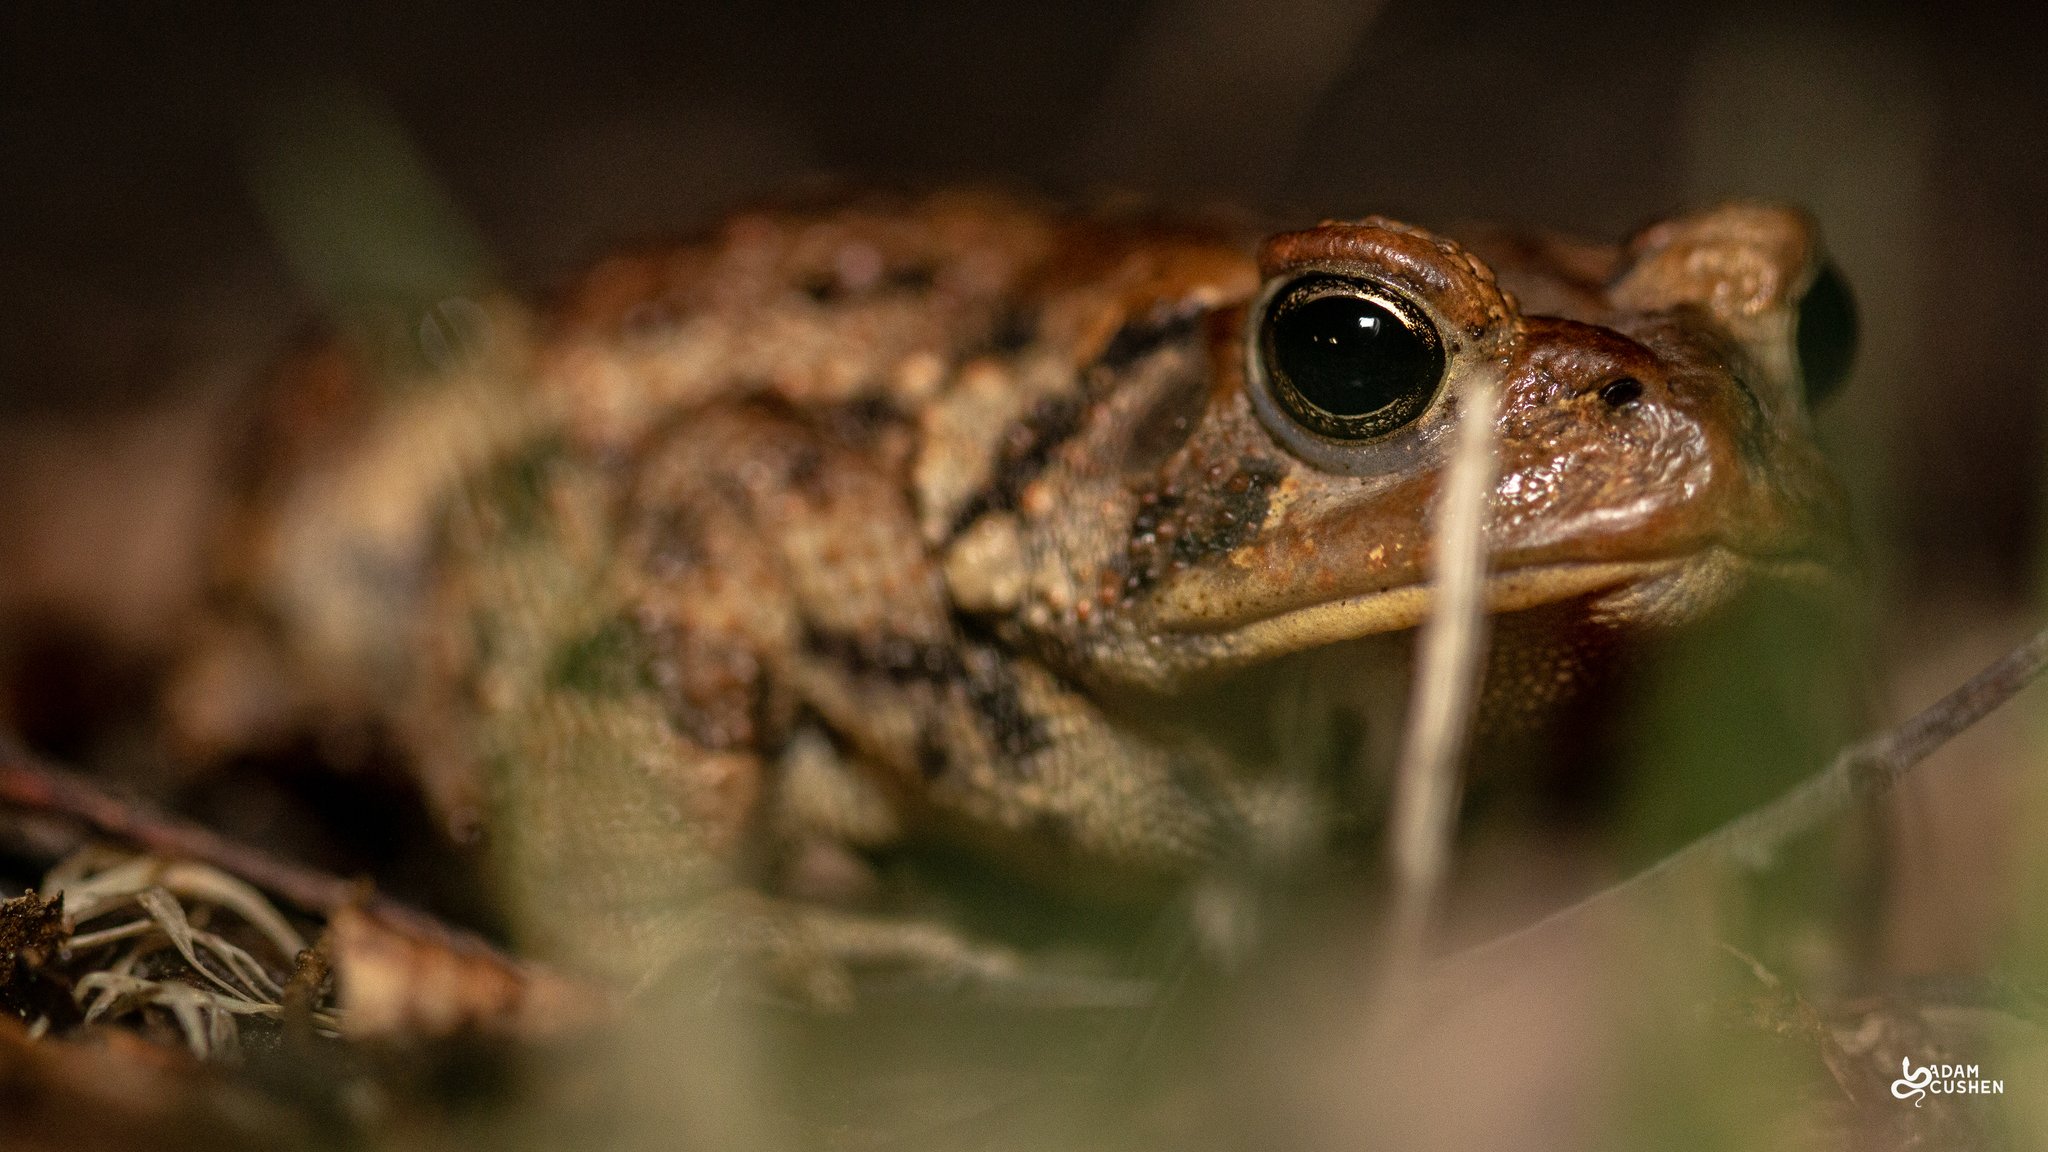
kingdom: Animalia
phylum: Chordata
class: Amphibia
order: Anura
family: Bufonidae
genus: Anaxyrus
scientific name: Anaxyrus americanus
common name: American toad
